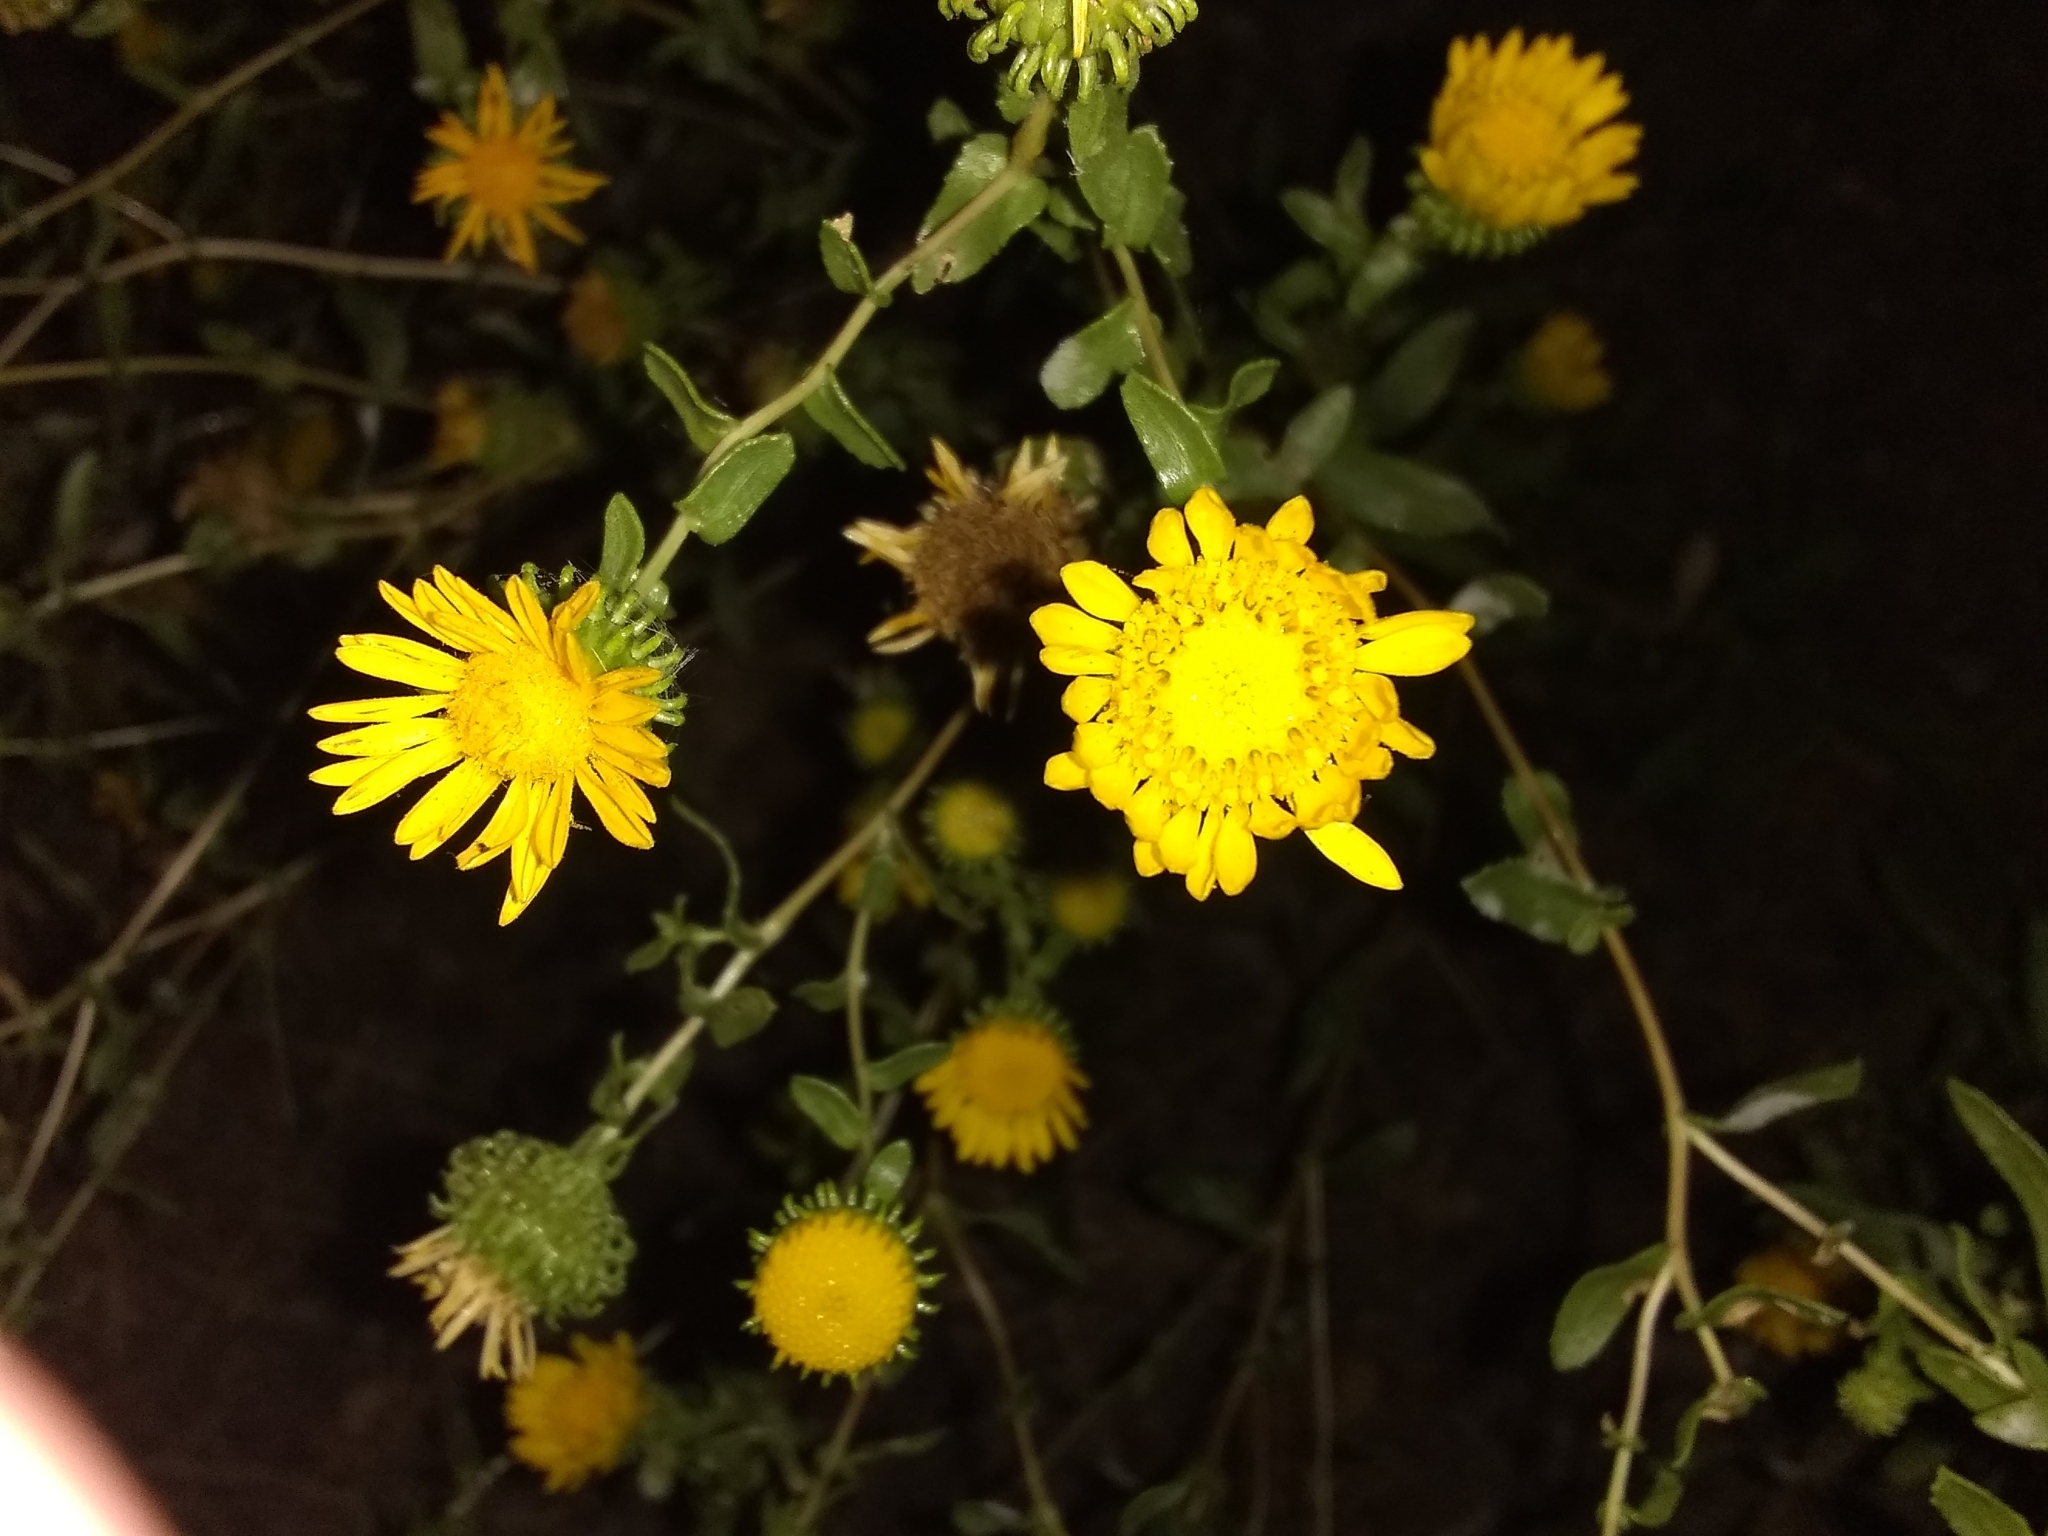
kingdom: Plantae
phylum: Tracheophyta
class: Magnoliopsida
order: Asterales
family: Asteraceae
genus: Grindelia
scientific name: Grindelia squarrosa
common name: Curly-cup gumweed
